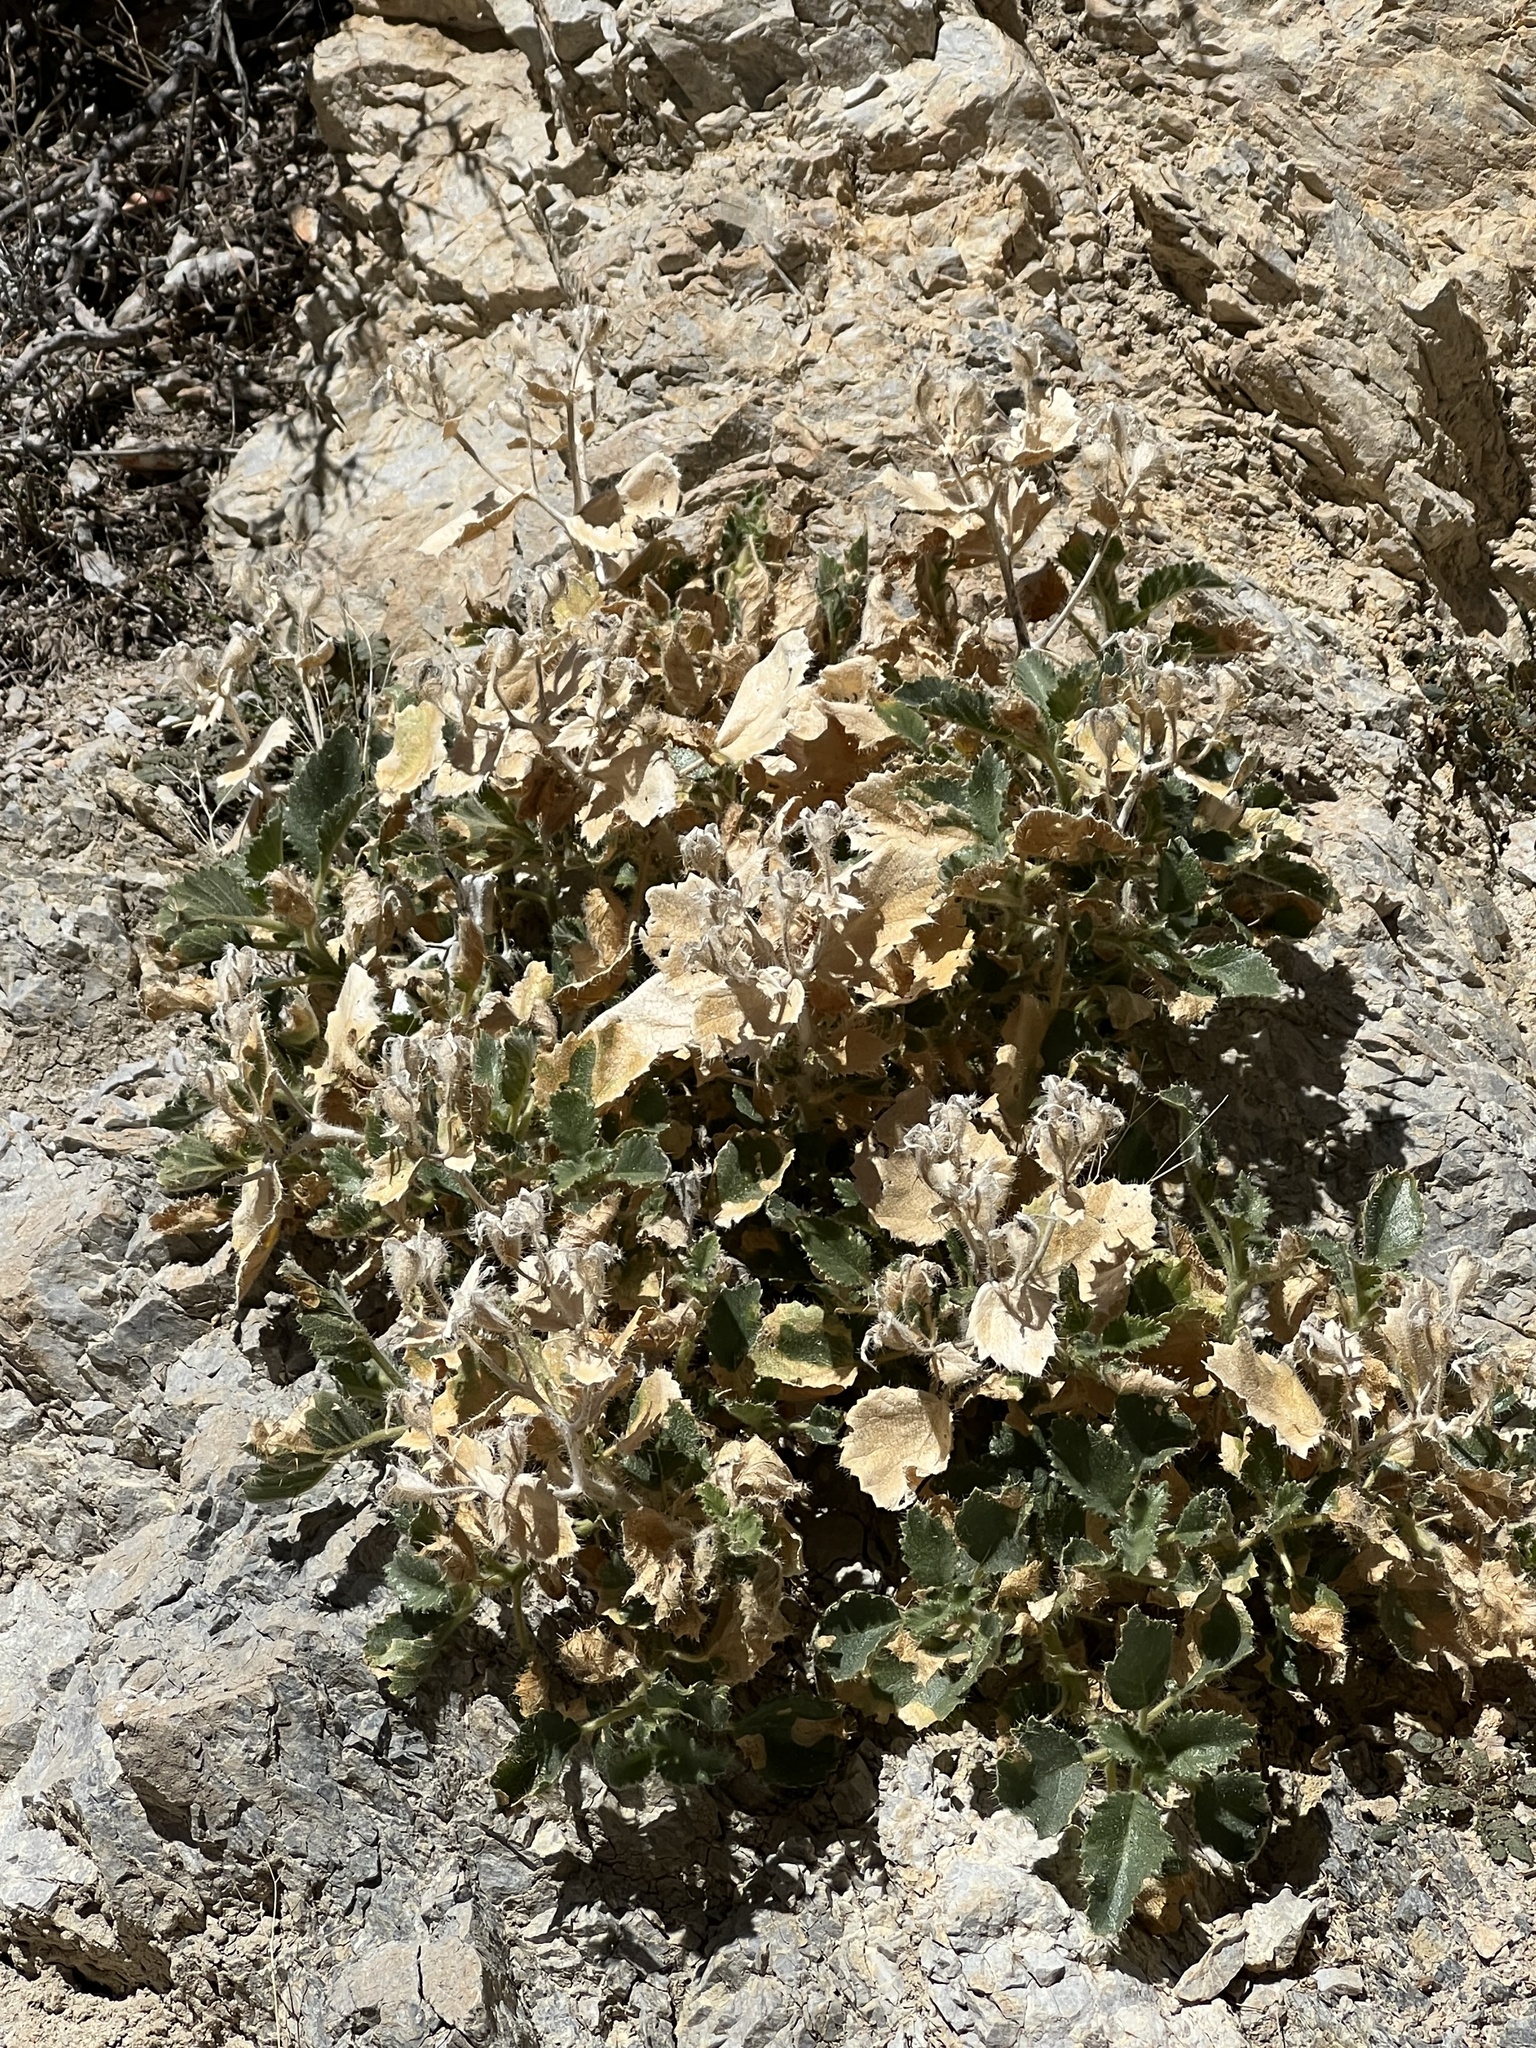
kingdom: Plantae
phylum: Tracheophyta
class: Magnoliopsida
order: Cornales
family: Loasaceae
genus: Eucnide
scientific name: Eucnide urens
